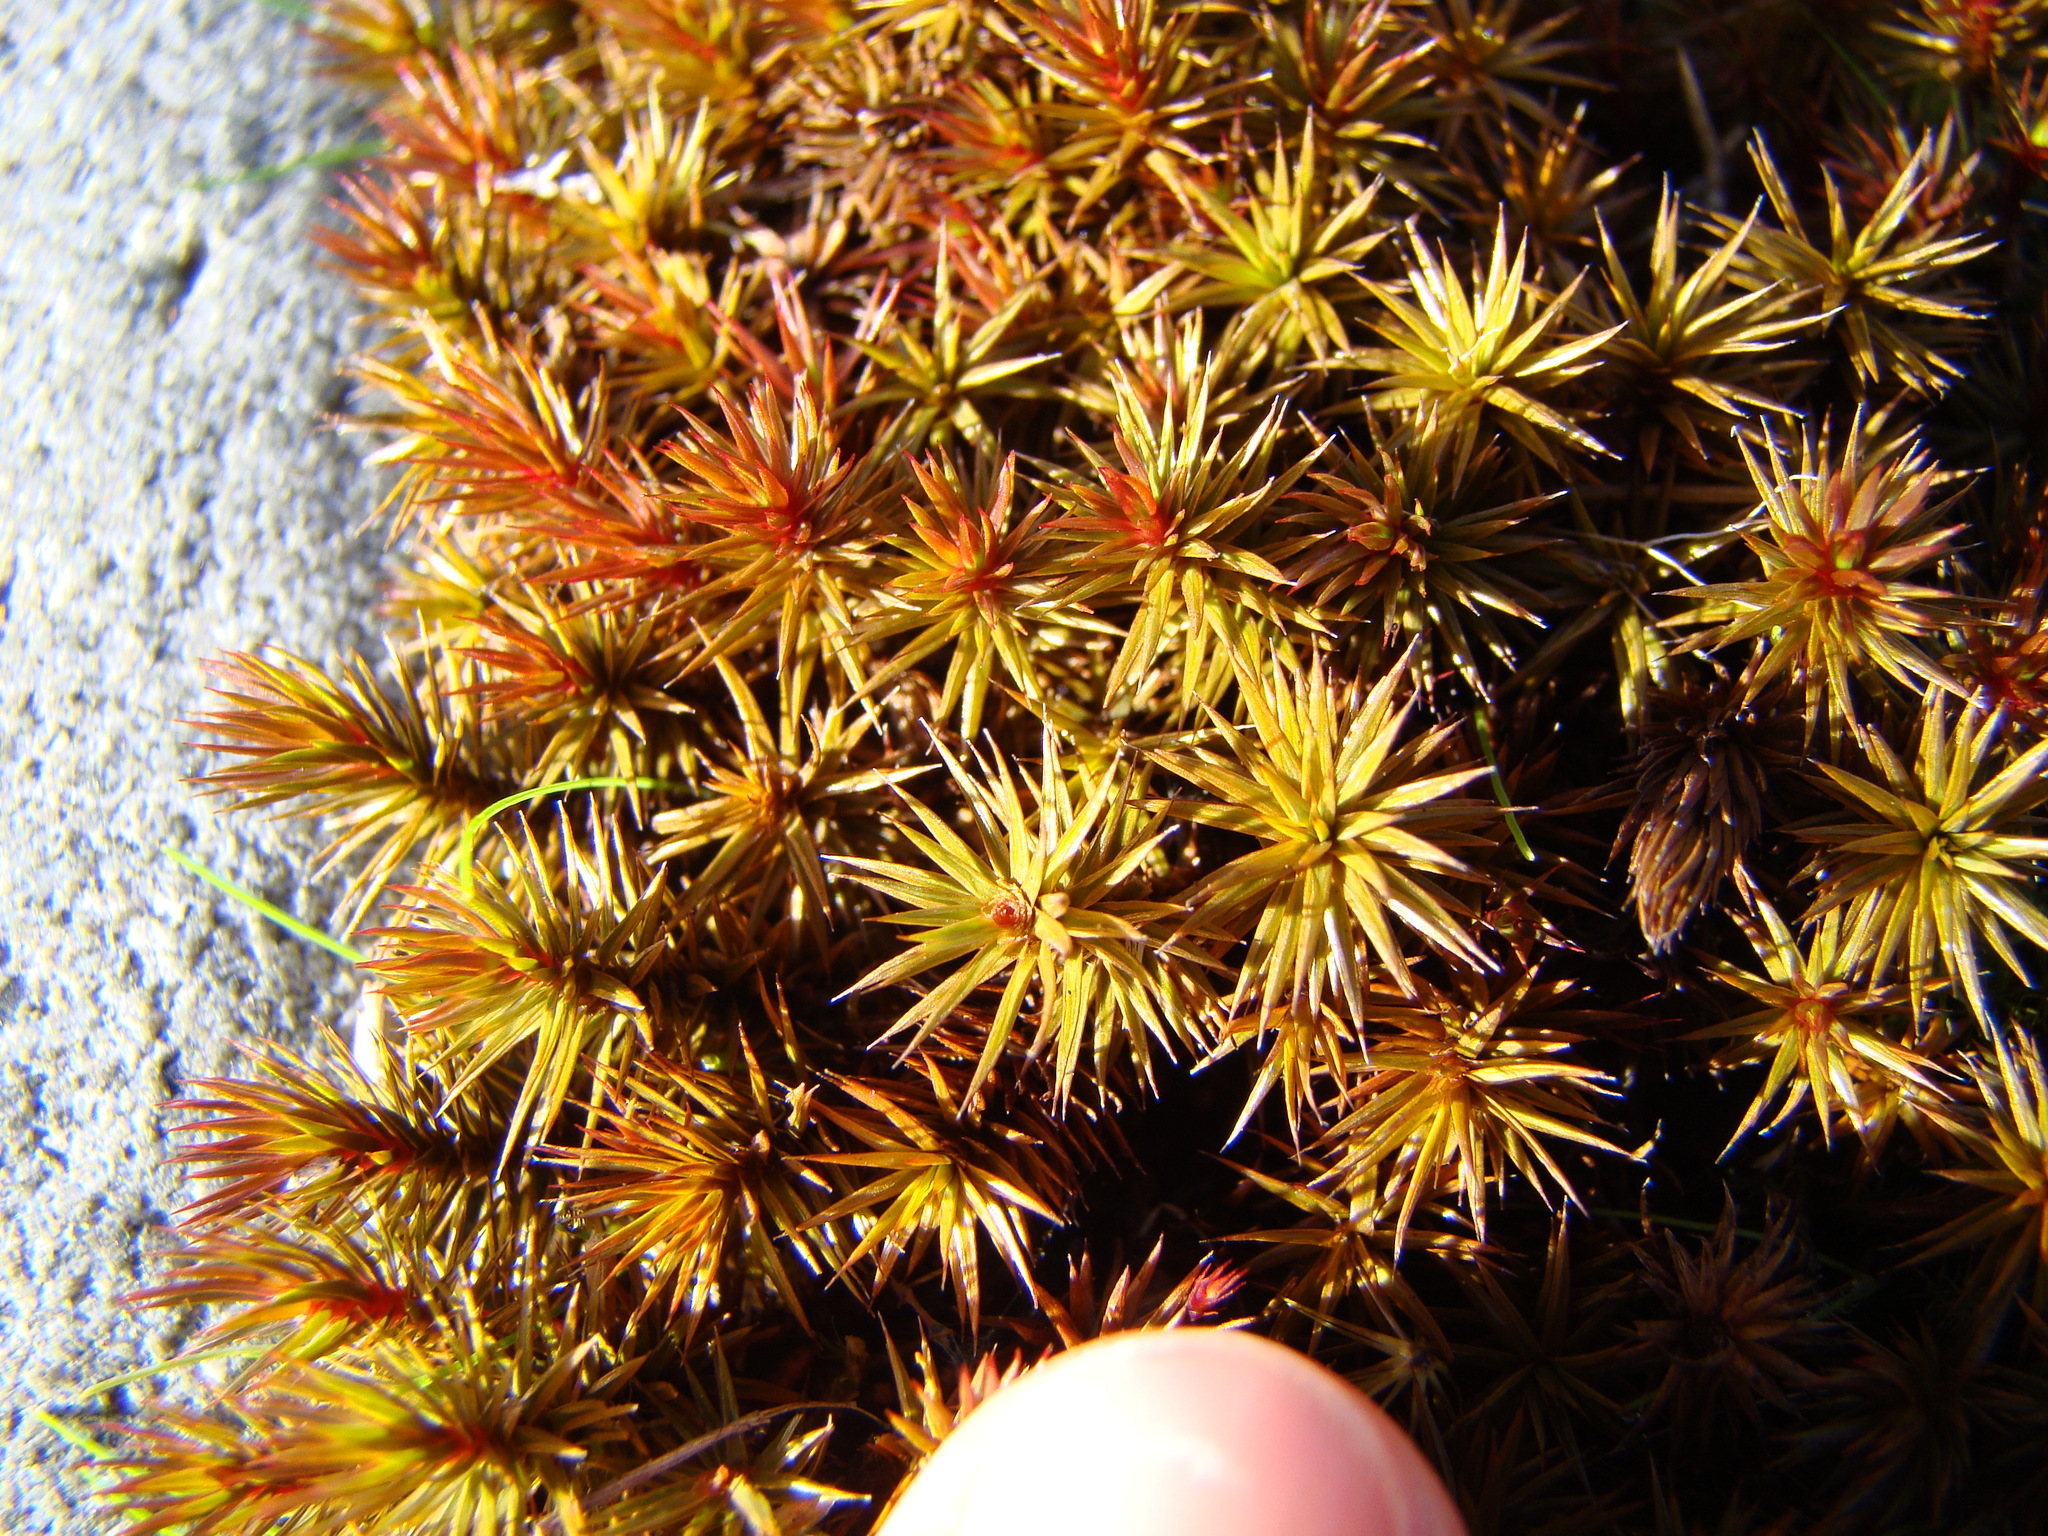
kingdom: Plantae
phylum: Bryophyta
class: Polytrichopsida
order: Polytrichales
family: Polytrichaceae
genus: Polytrichum
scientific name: Polytrichum juniperinum
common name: Juniper haircap moss
